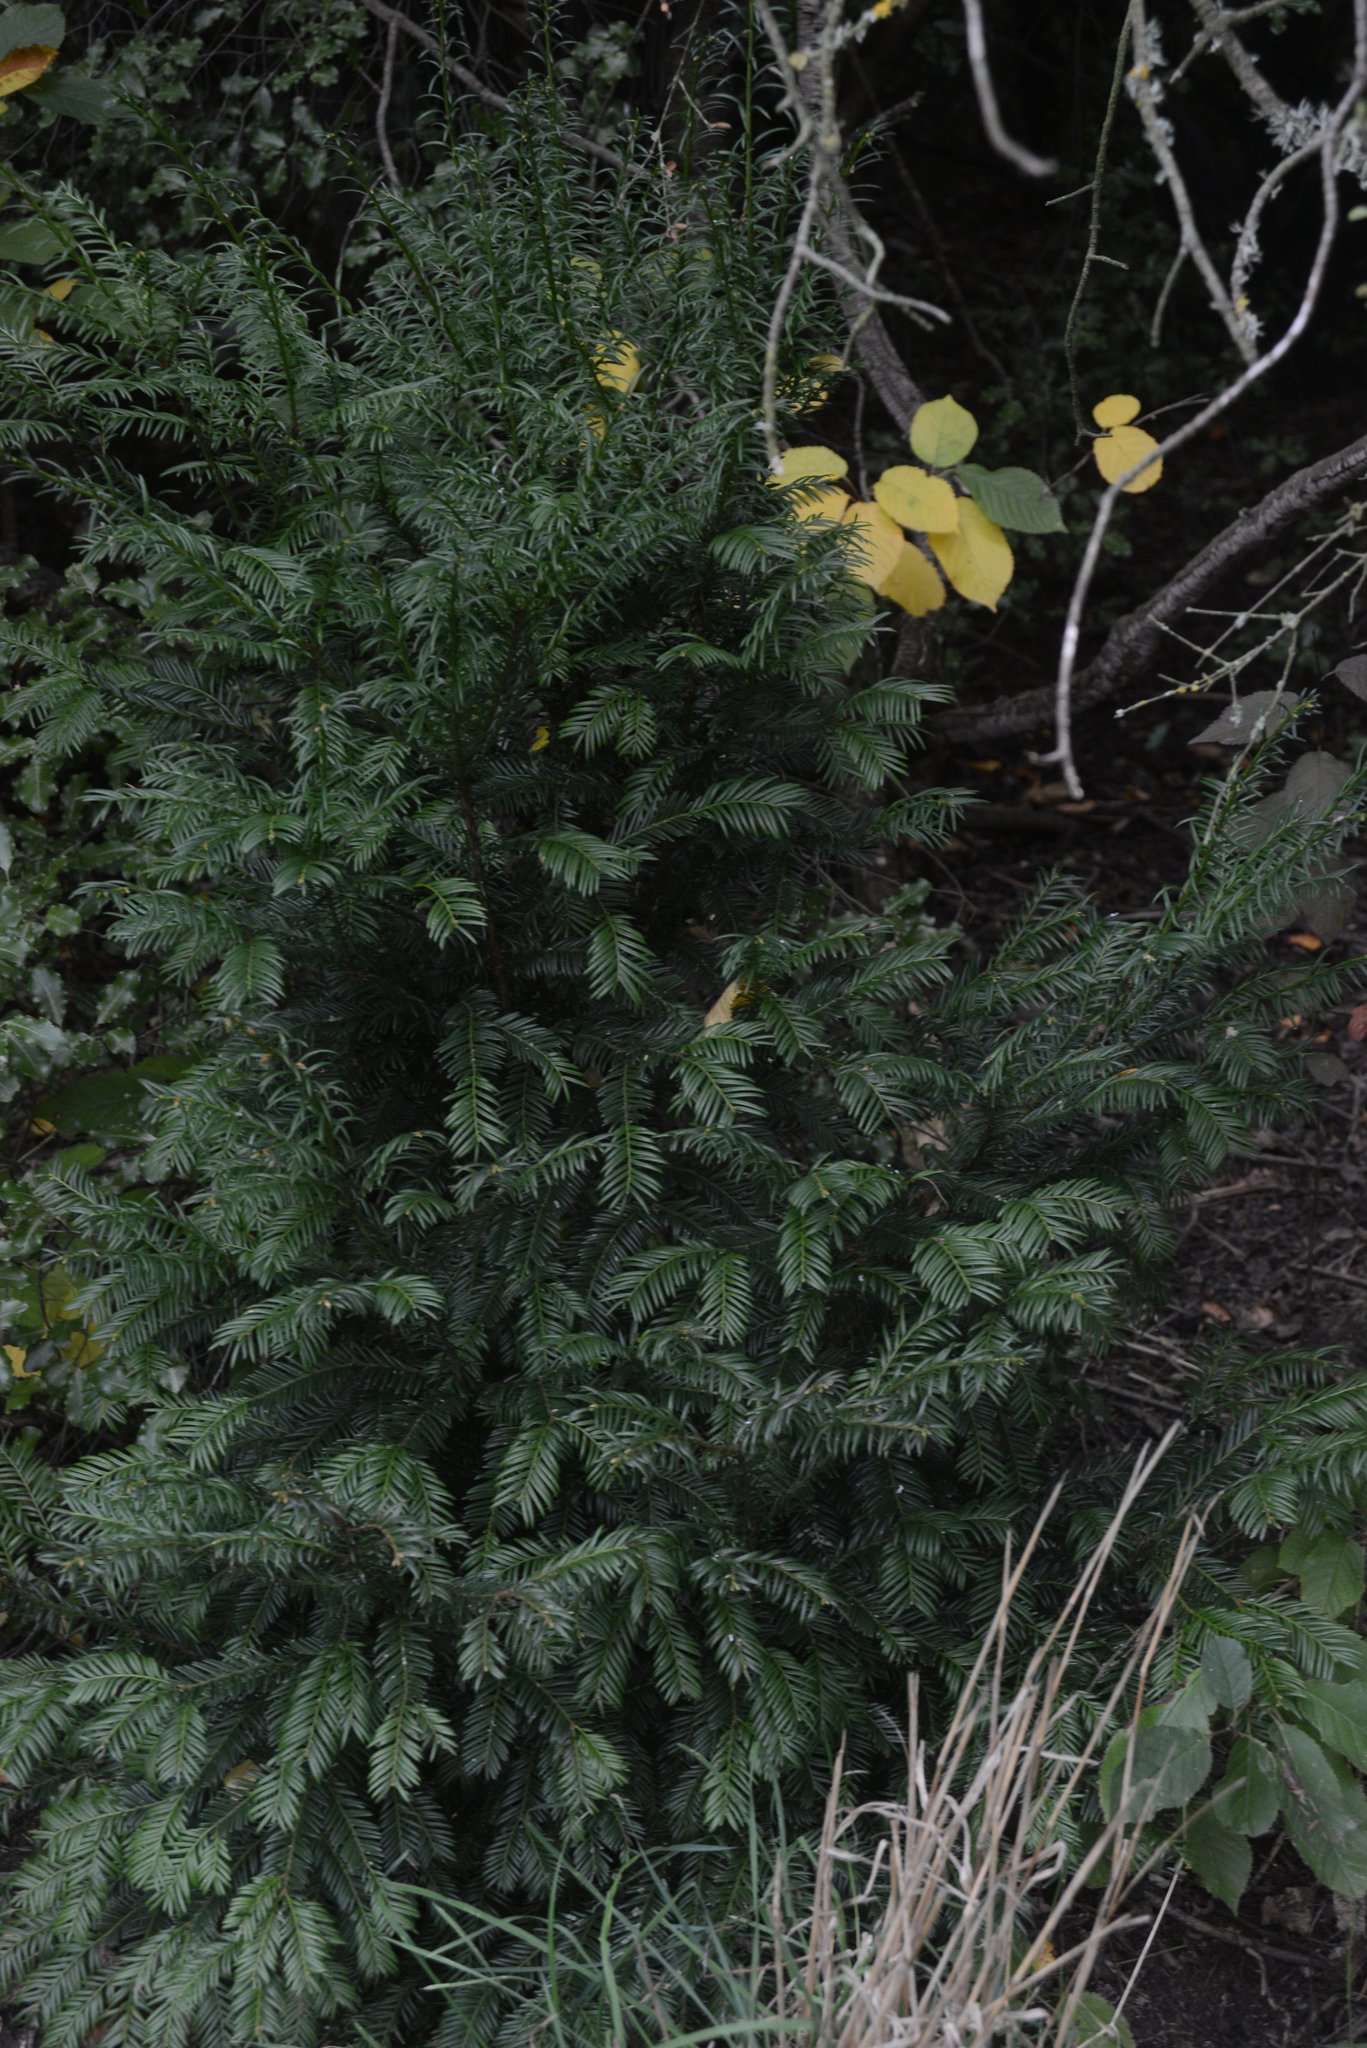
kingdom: Plantae
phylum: Tracheophyta
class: Pinopsida
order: Pinales
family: Taxaceae
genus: Taxus
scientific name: Taxus baccata
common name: Yew
